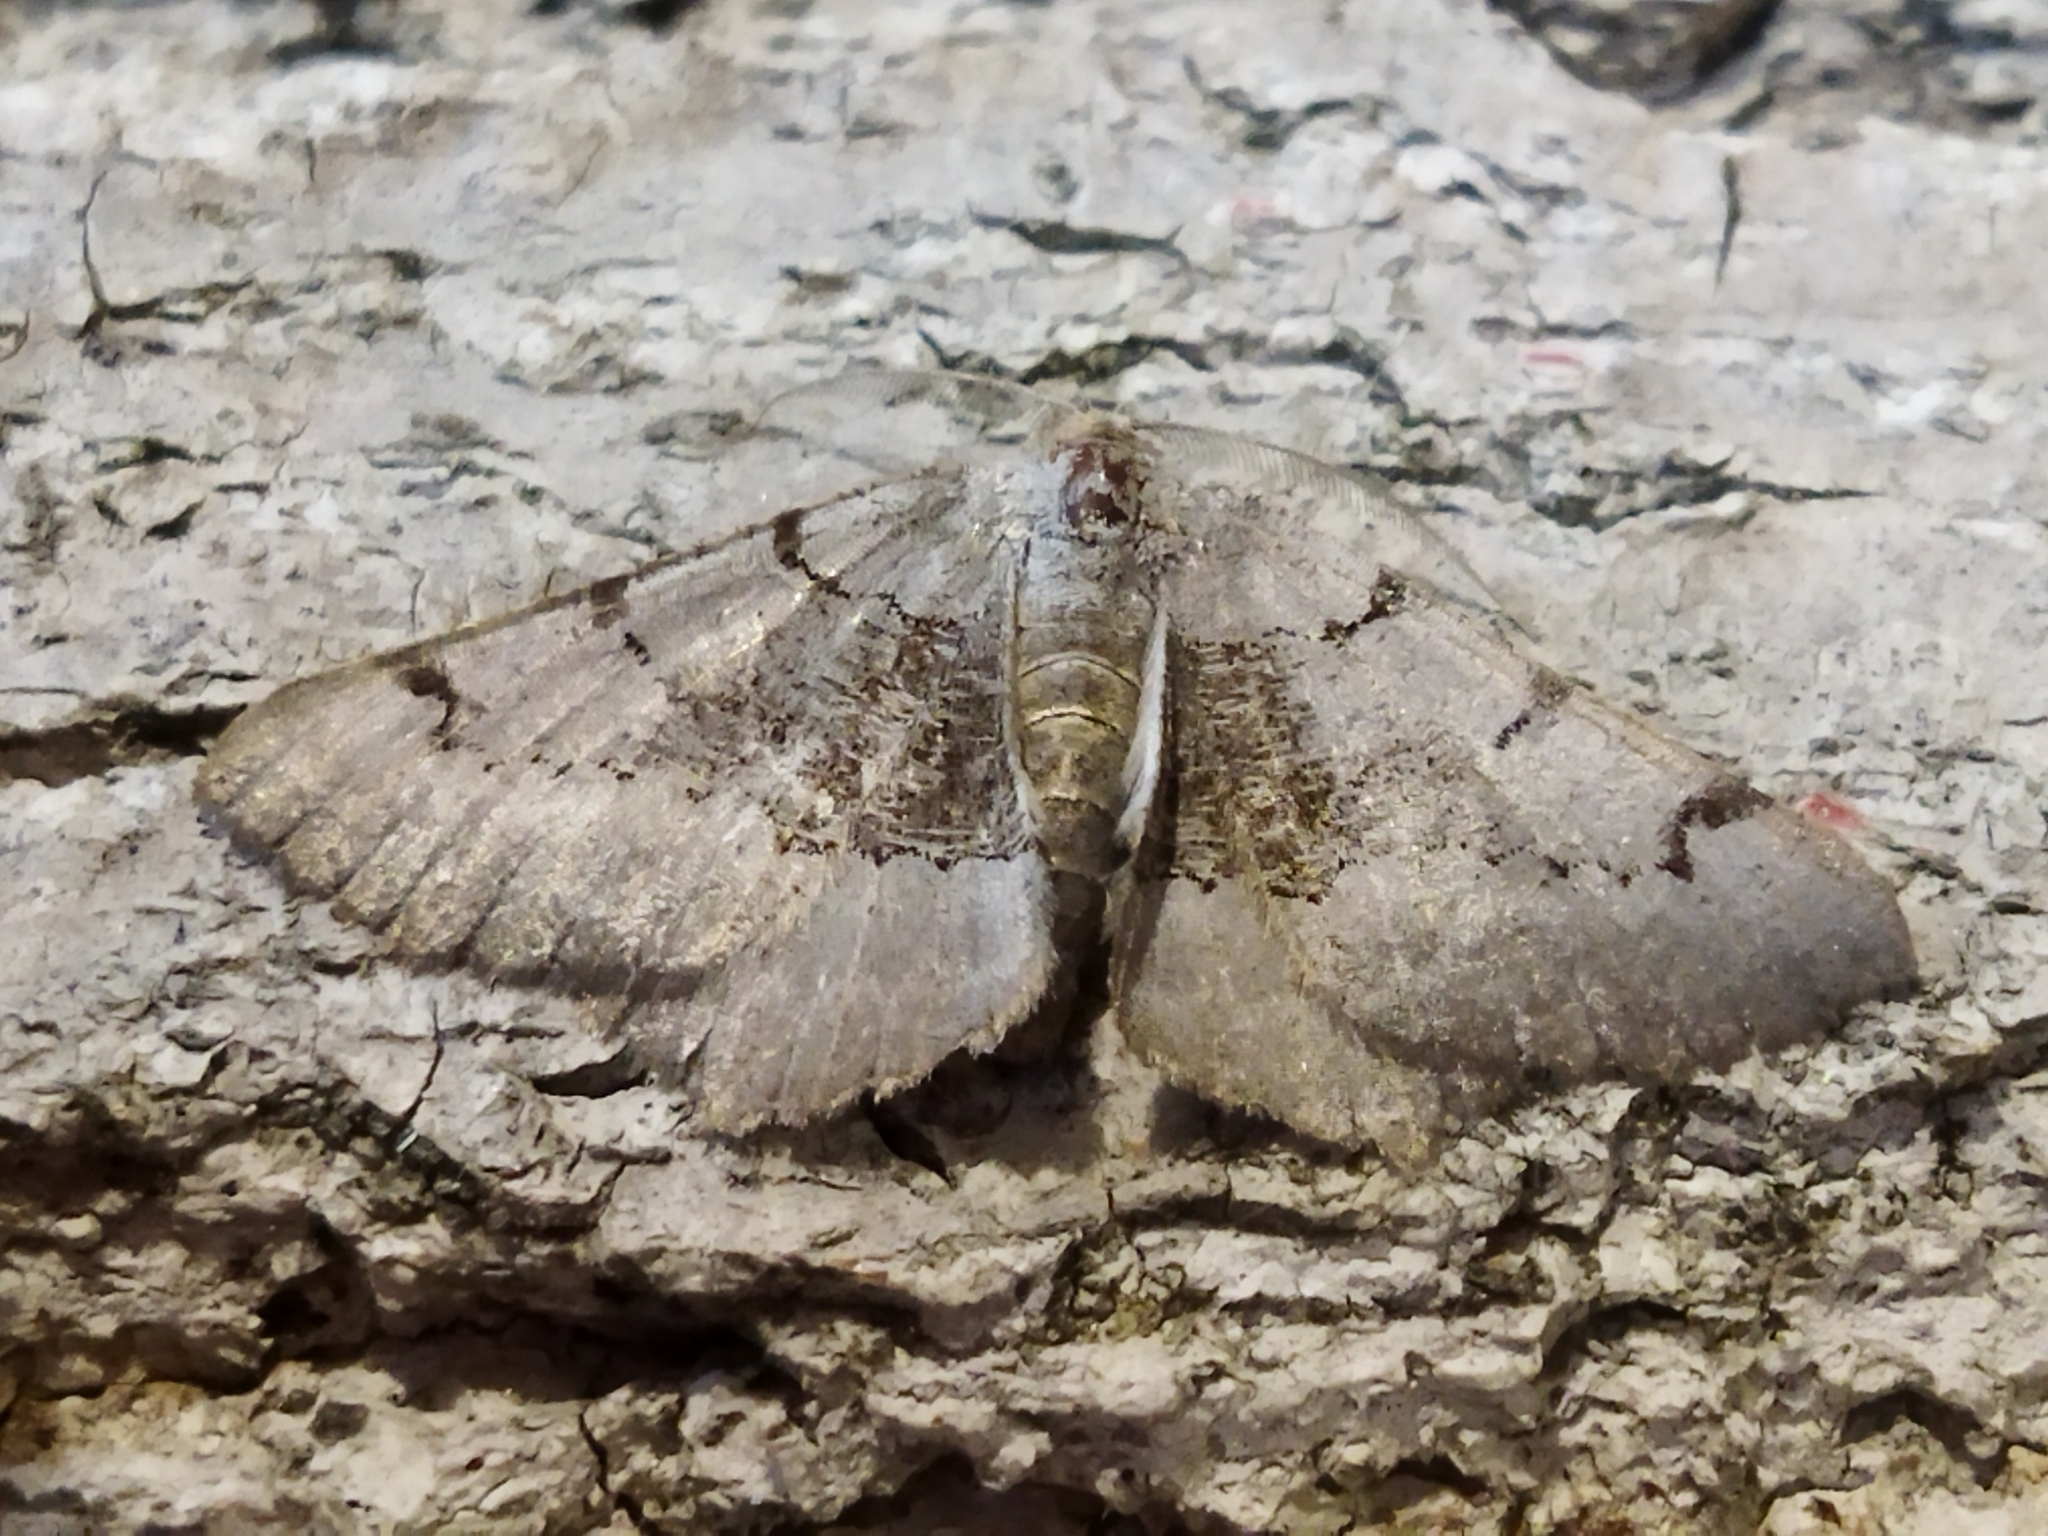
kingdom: Animalia
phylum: Arthropoda
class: Insecta
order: Lepidoptera
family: Geometridae
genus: Neognopharmia
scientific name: Neognopharmia stevenaria
